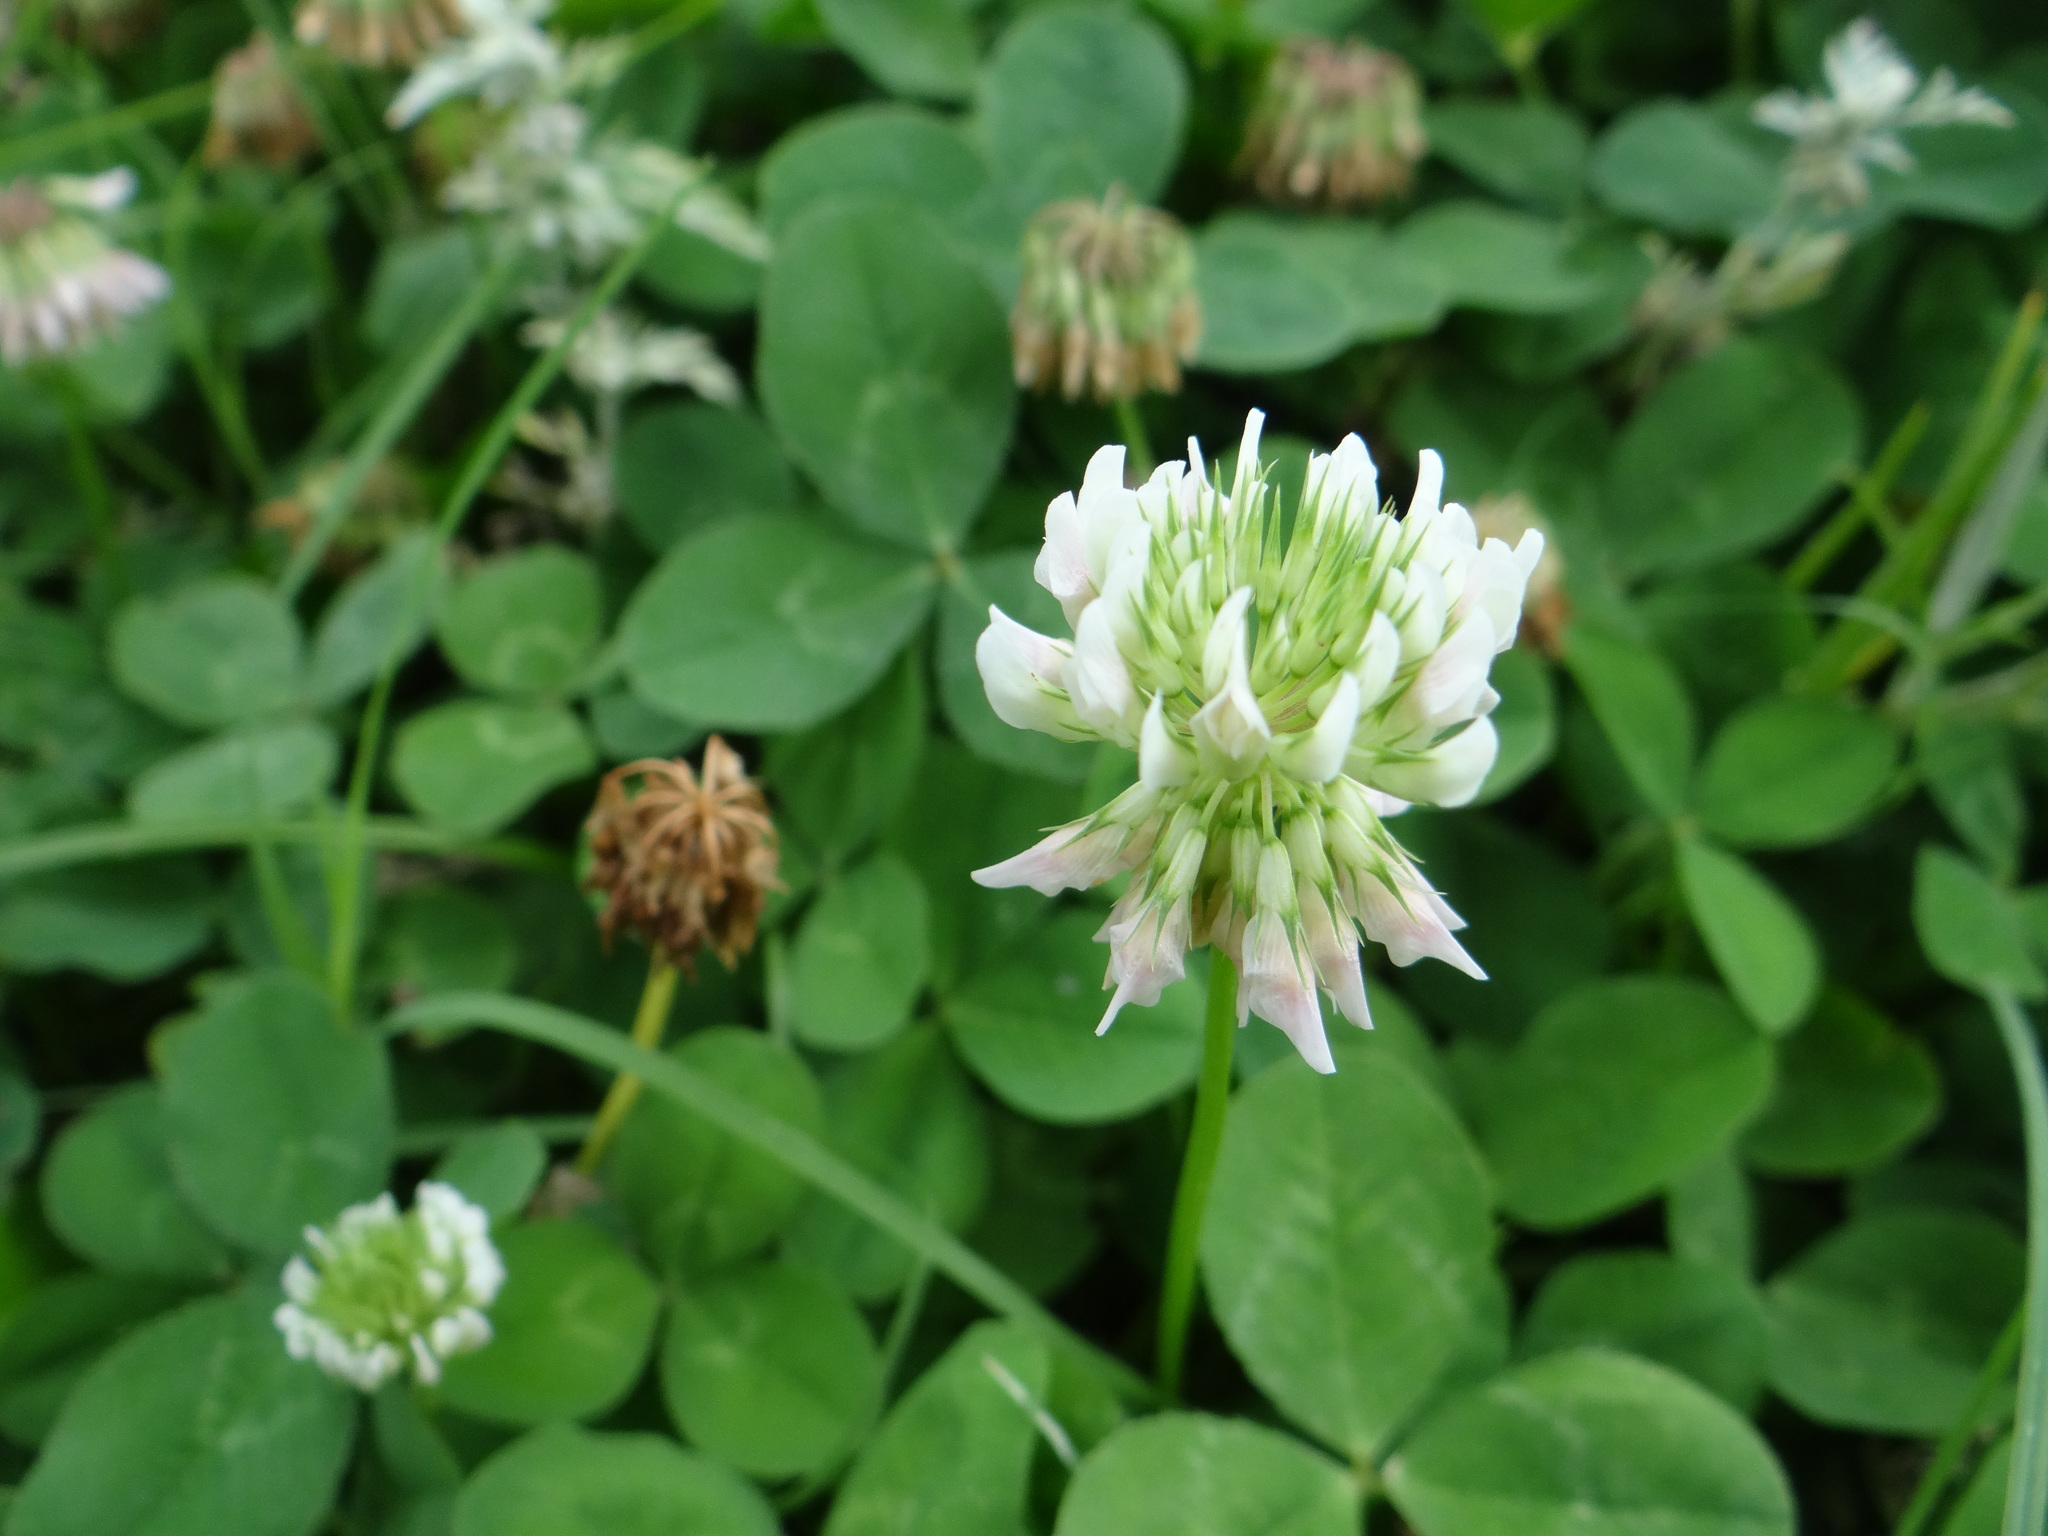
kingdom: Plantae
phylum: Tracheophyta
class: Magnoliopsida
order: Fabales
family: Fabaceae
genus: Trifolium
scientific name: Trifolium repens
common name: White clover
